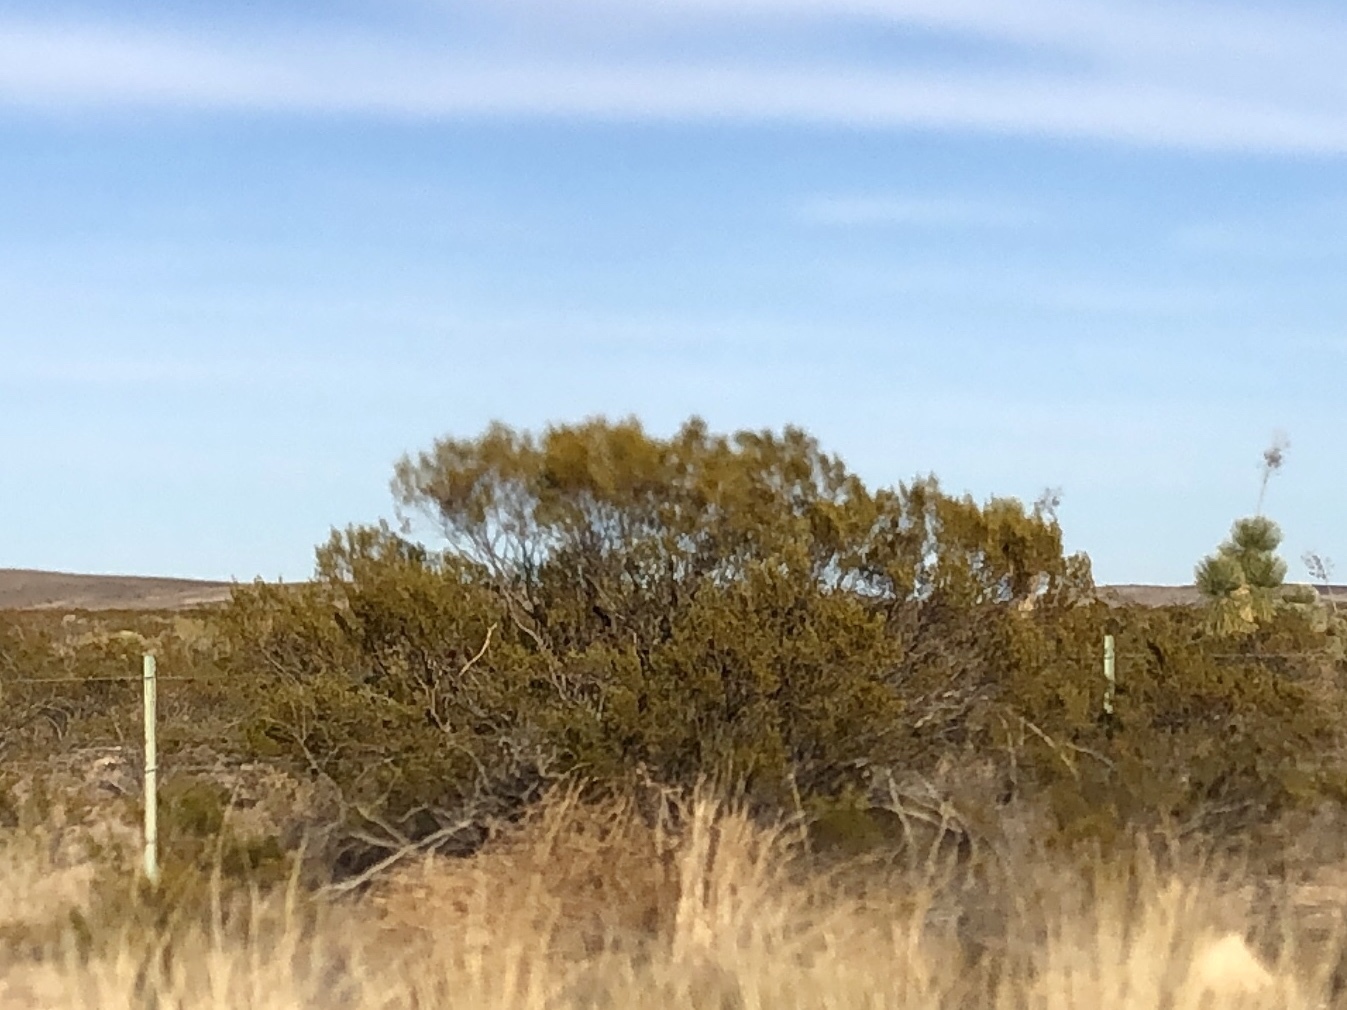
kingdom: Plantae
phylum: Tracheophyta
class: Magnoliopsida
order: Zygophyllales
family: Zygophyllaceae
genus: Larrea
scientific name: Larrea tridentata
